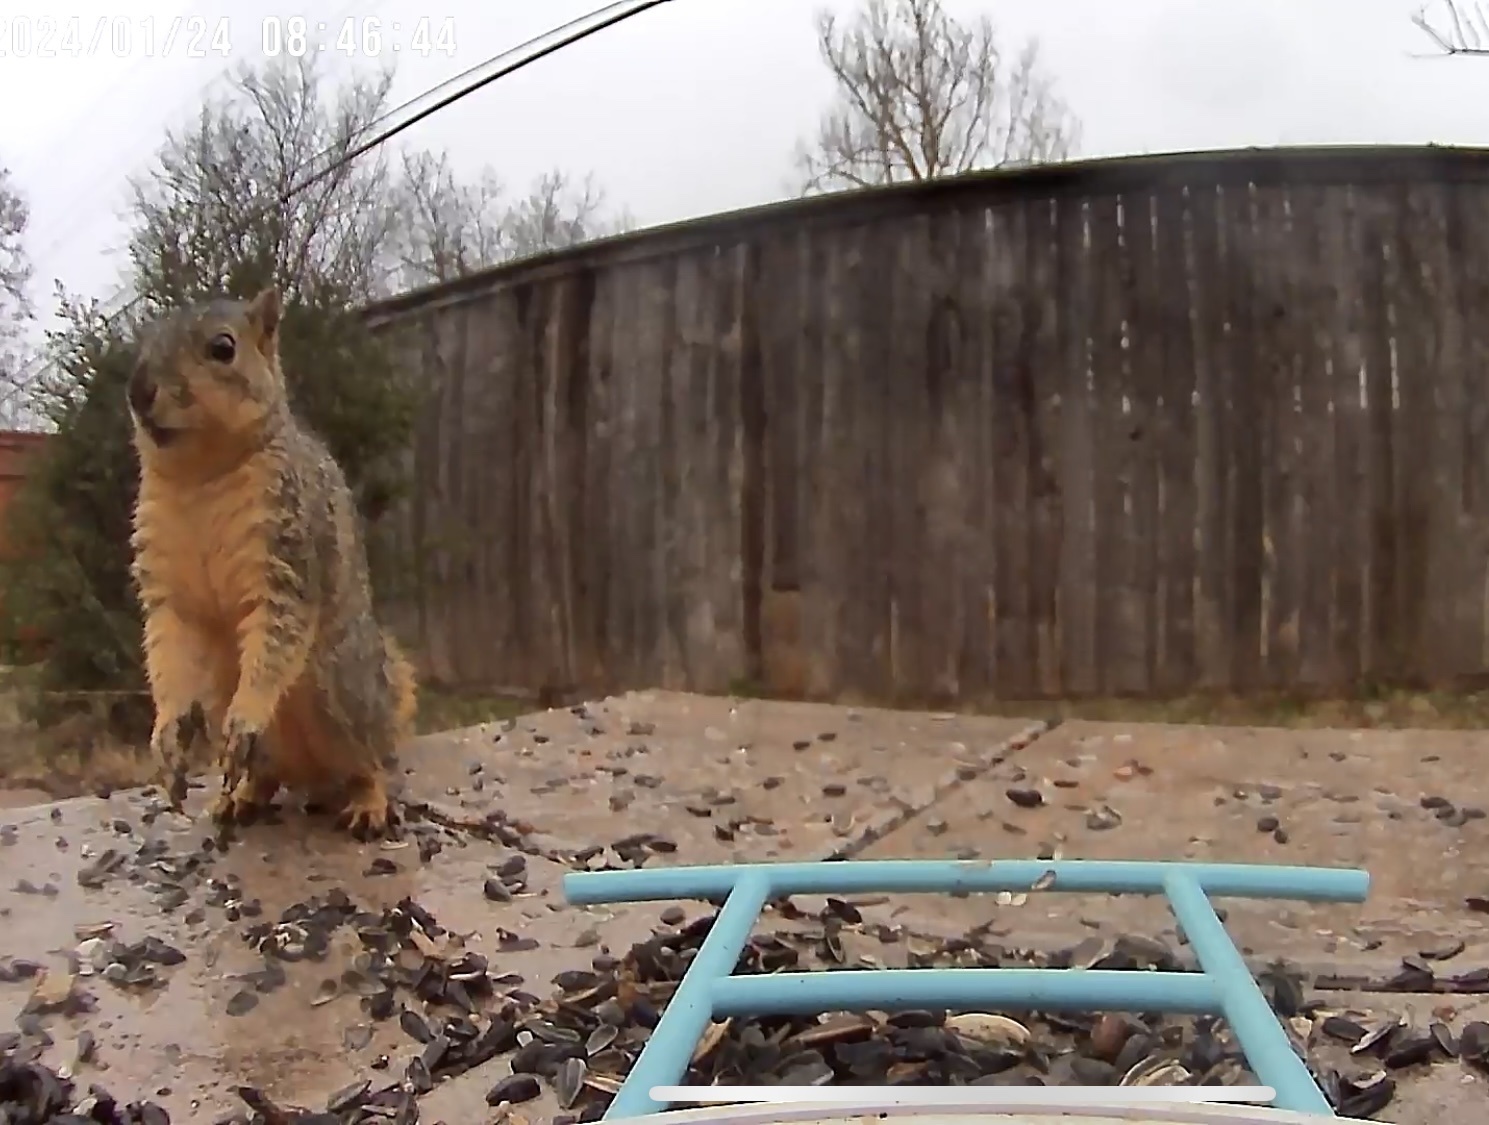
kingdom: Animalia
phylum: Chordata
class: Mammalia
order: Rodentia
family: Sciuridae
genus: Sciurus
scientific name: Sciurus niger
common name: Fox squirrel
